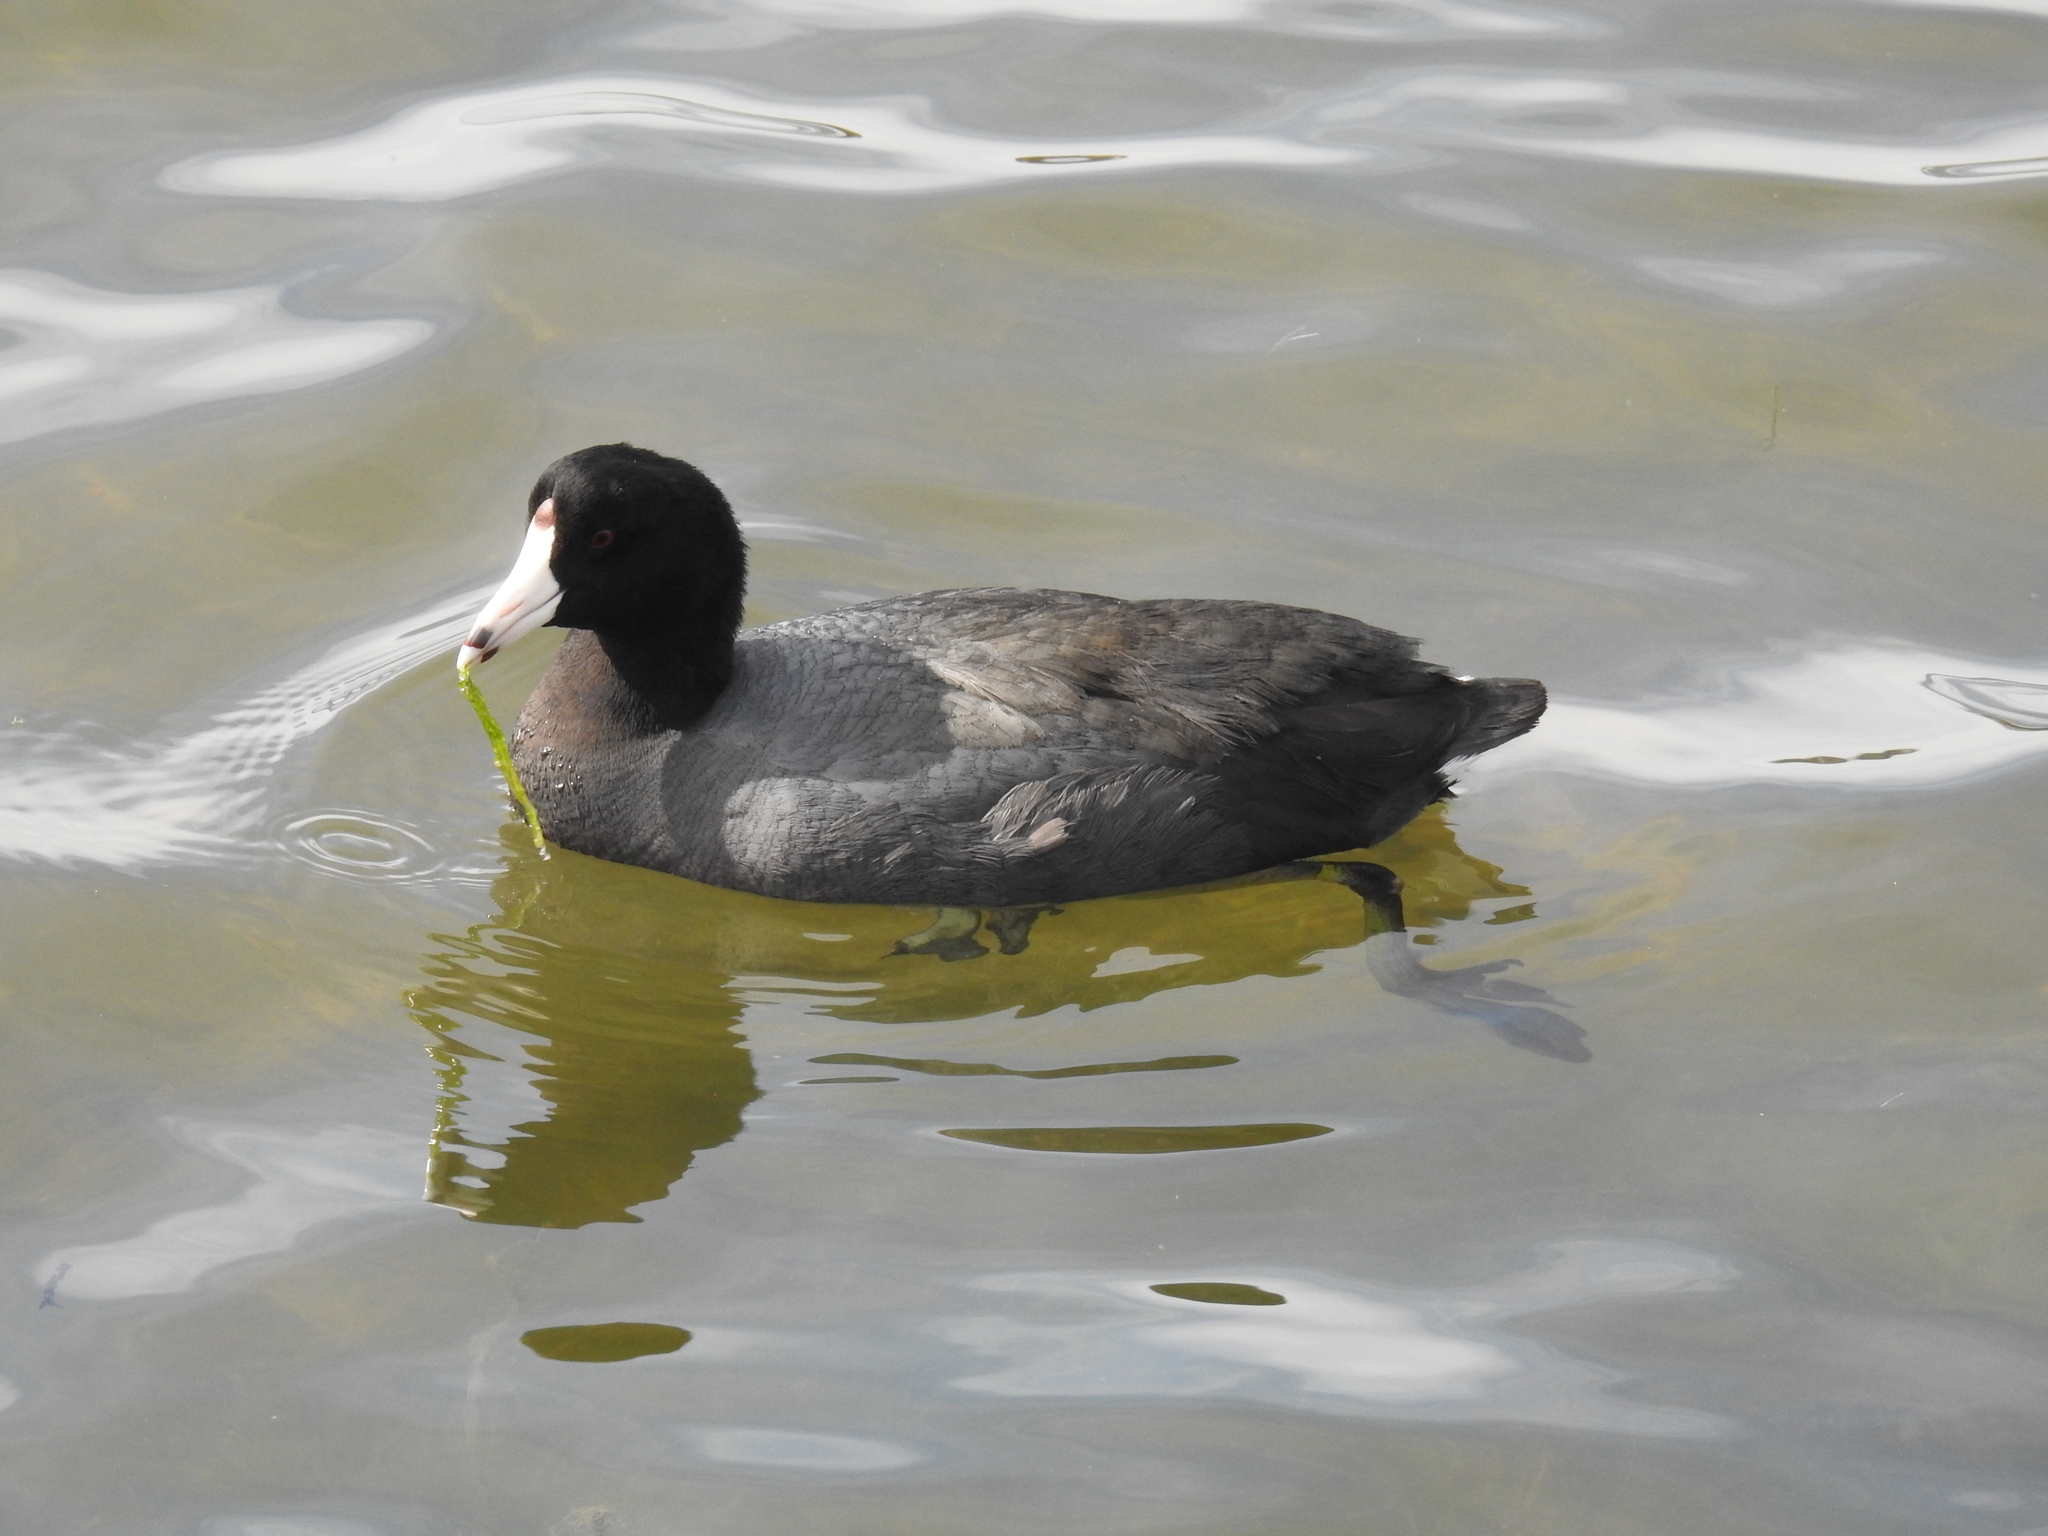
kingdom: Animalia
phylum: Chordata
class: Aves
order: Gruiformes
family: Rallidae
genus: Fulica
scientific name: Fulica americana
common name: American coot
